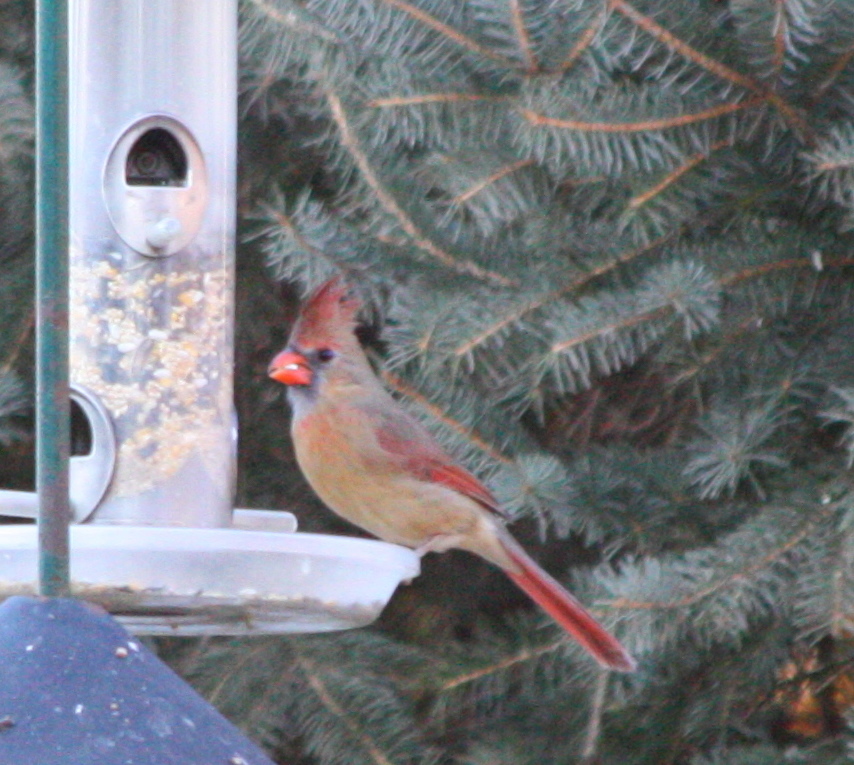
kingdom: Animalia
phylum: Chordata
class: Aves
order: Passeriformes
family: Cardinalidae
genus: Cardinalis
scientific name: Cardinalis cardinalis
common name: Northern cardinal
